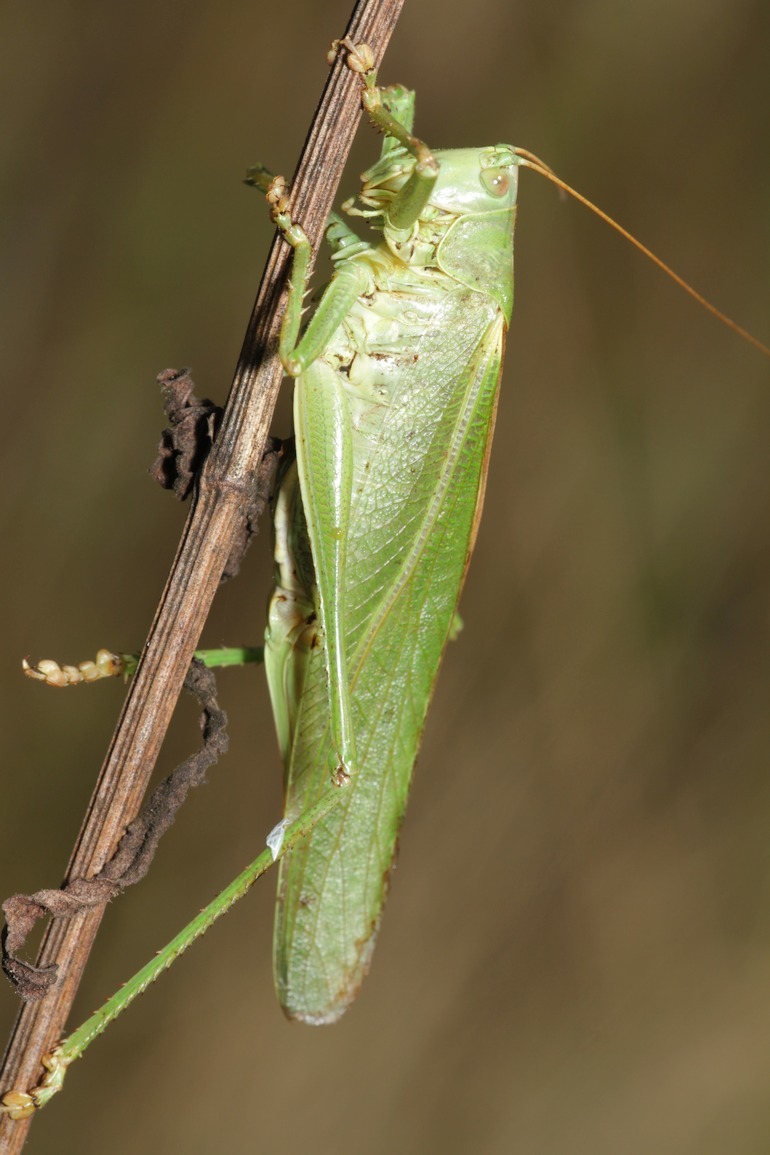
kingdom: Animalia
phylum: Arthropoda
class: Insecta
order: Orthoptera
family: Tettigoniidae
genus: Tettigonia
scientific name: Tettigonia viridissima
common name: Great green bush-cricket
